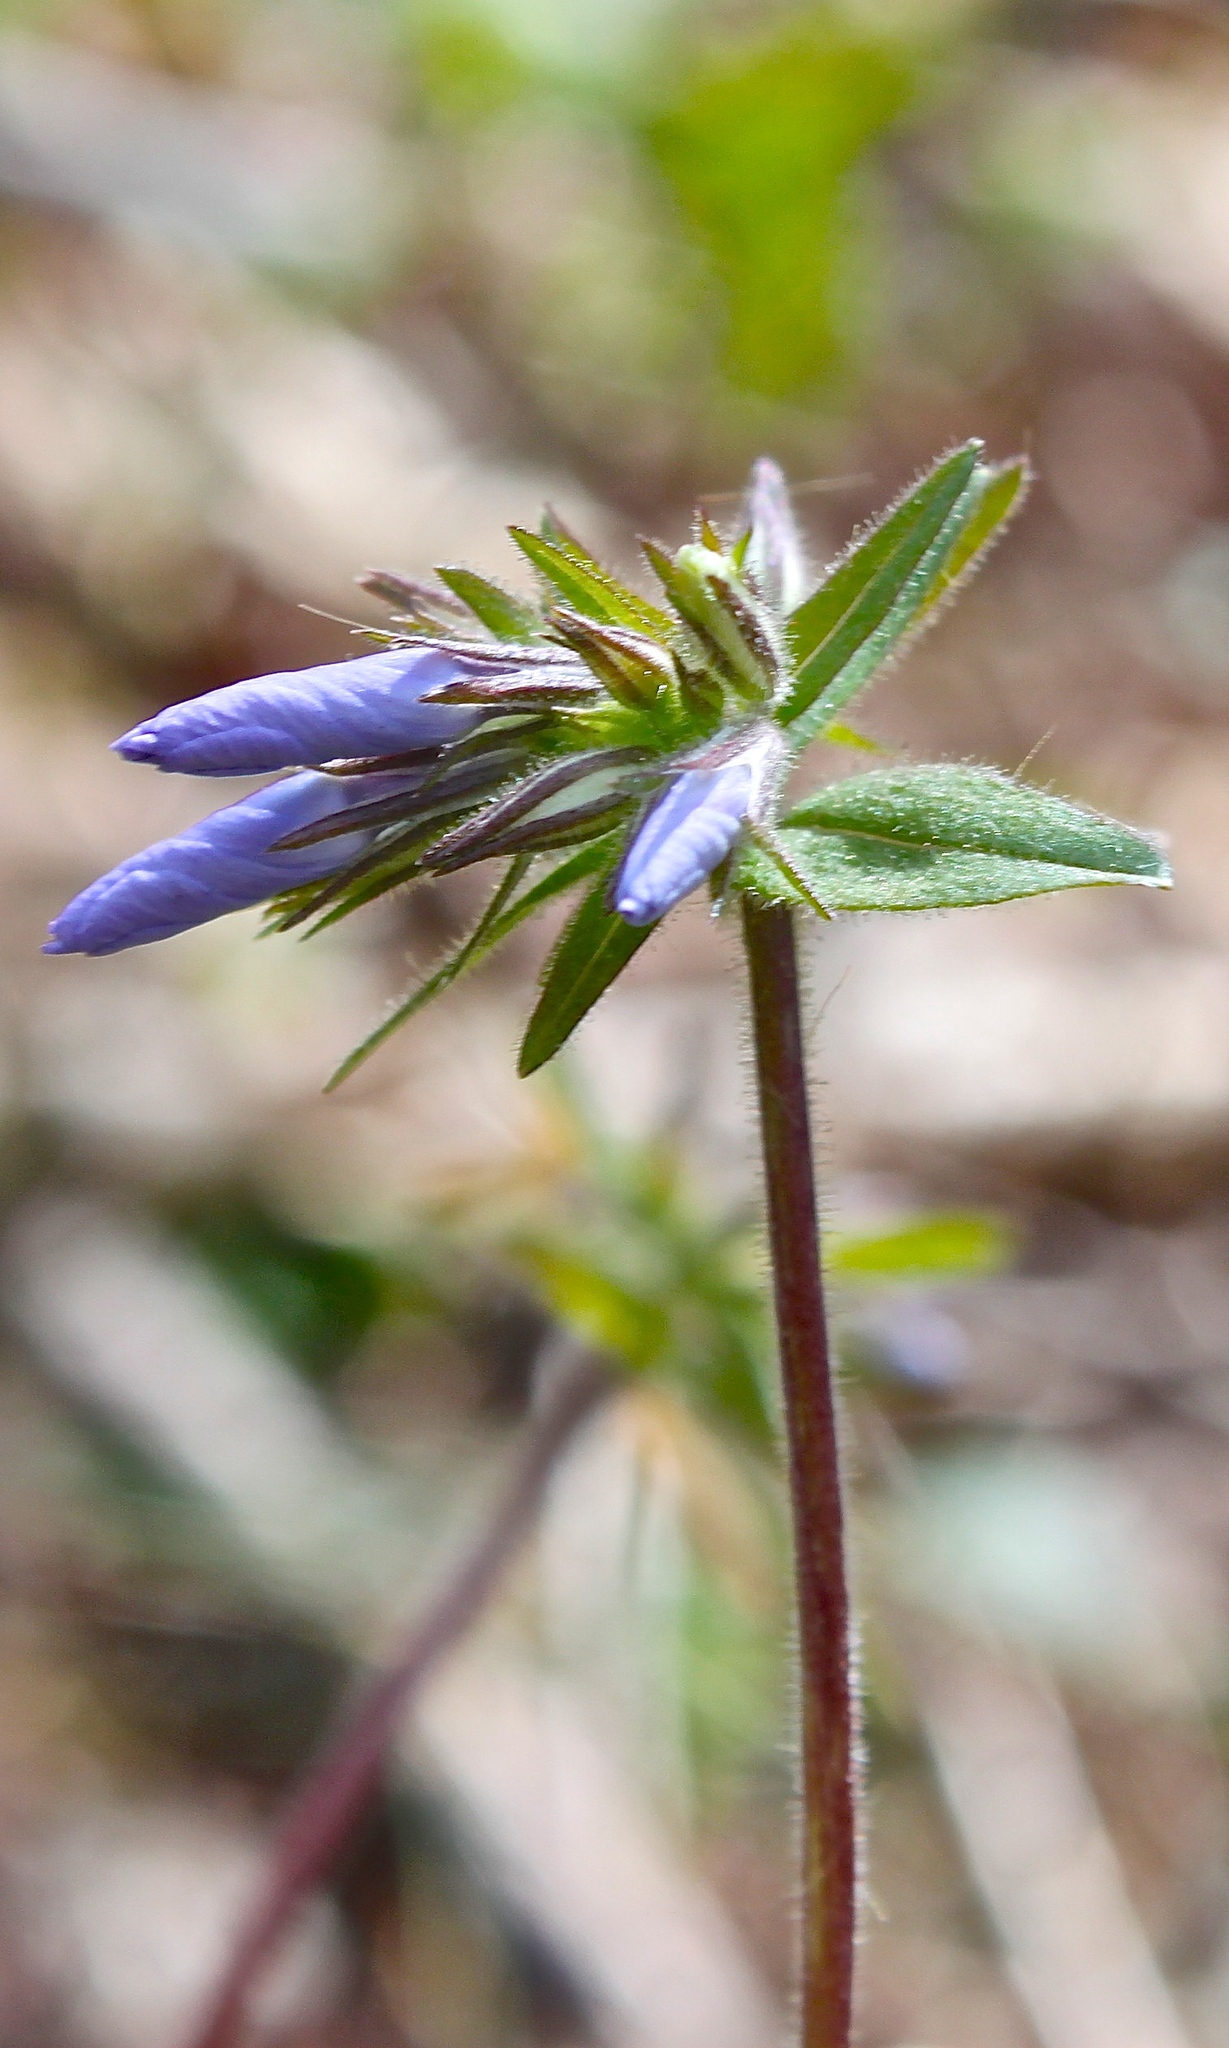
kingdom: Plantae
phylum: Tracheophyta
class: Magnoliopsida
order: Ericales
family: Polemoniaceae
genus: Phlox
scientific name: Phlox divaricata
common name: Blue phlox
